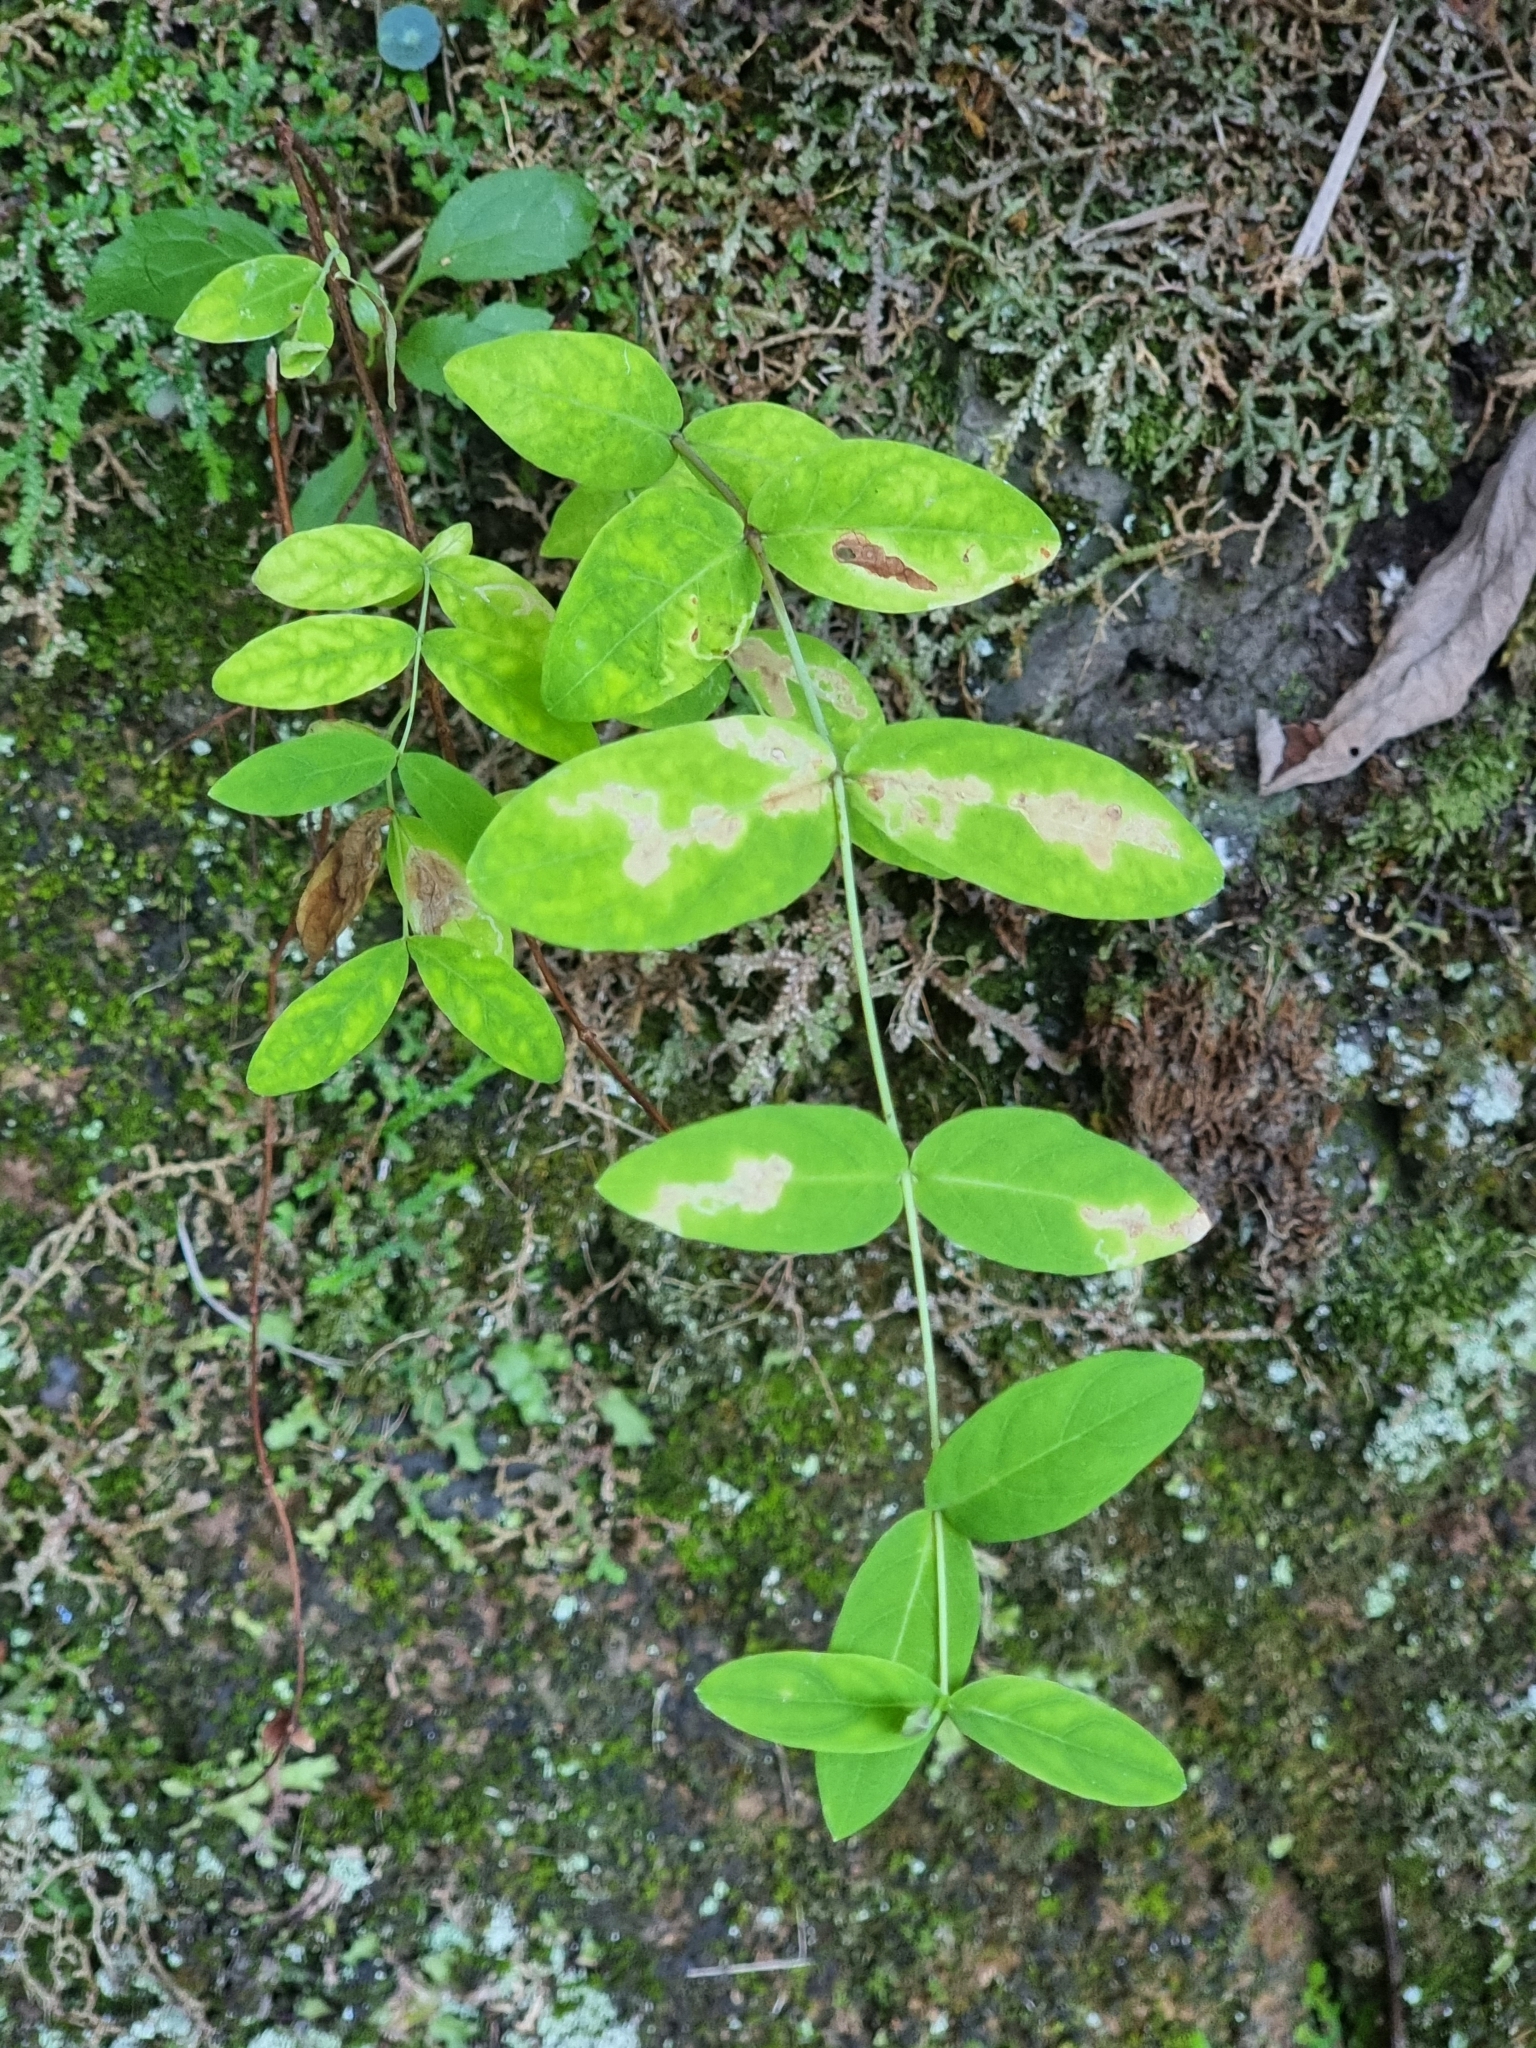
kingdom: Plantae
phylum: Tracheophyta
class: Magnoliopsida
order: Malpighiales
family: Hypericaceae
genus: Hypericum
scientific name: Hypericum grandifolium
